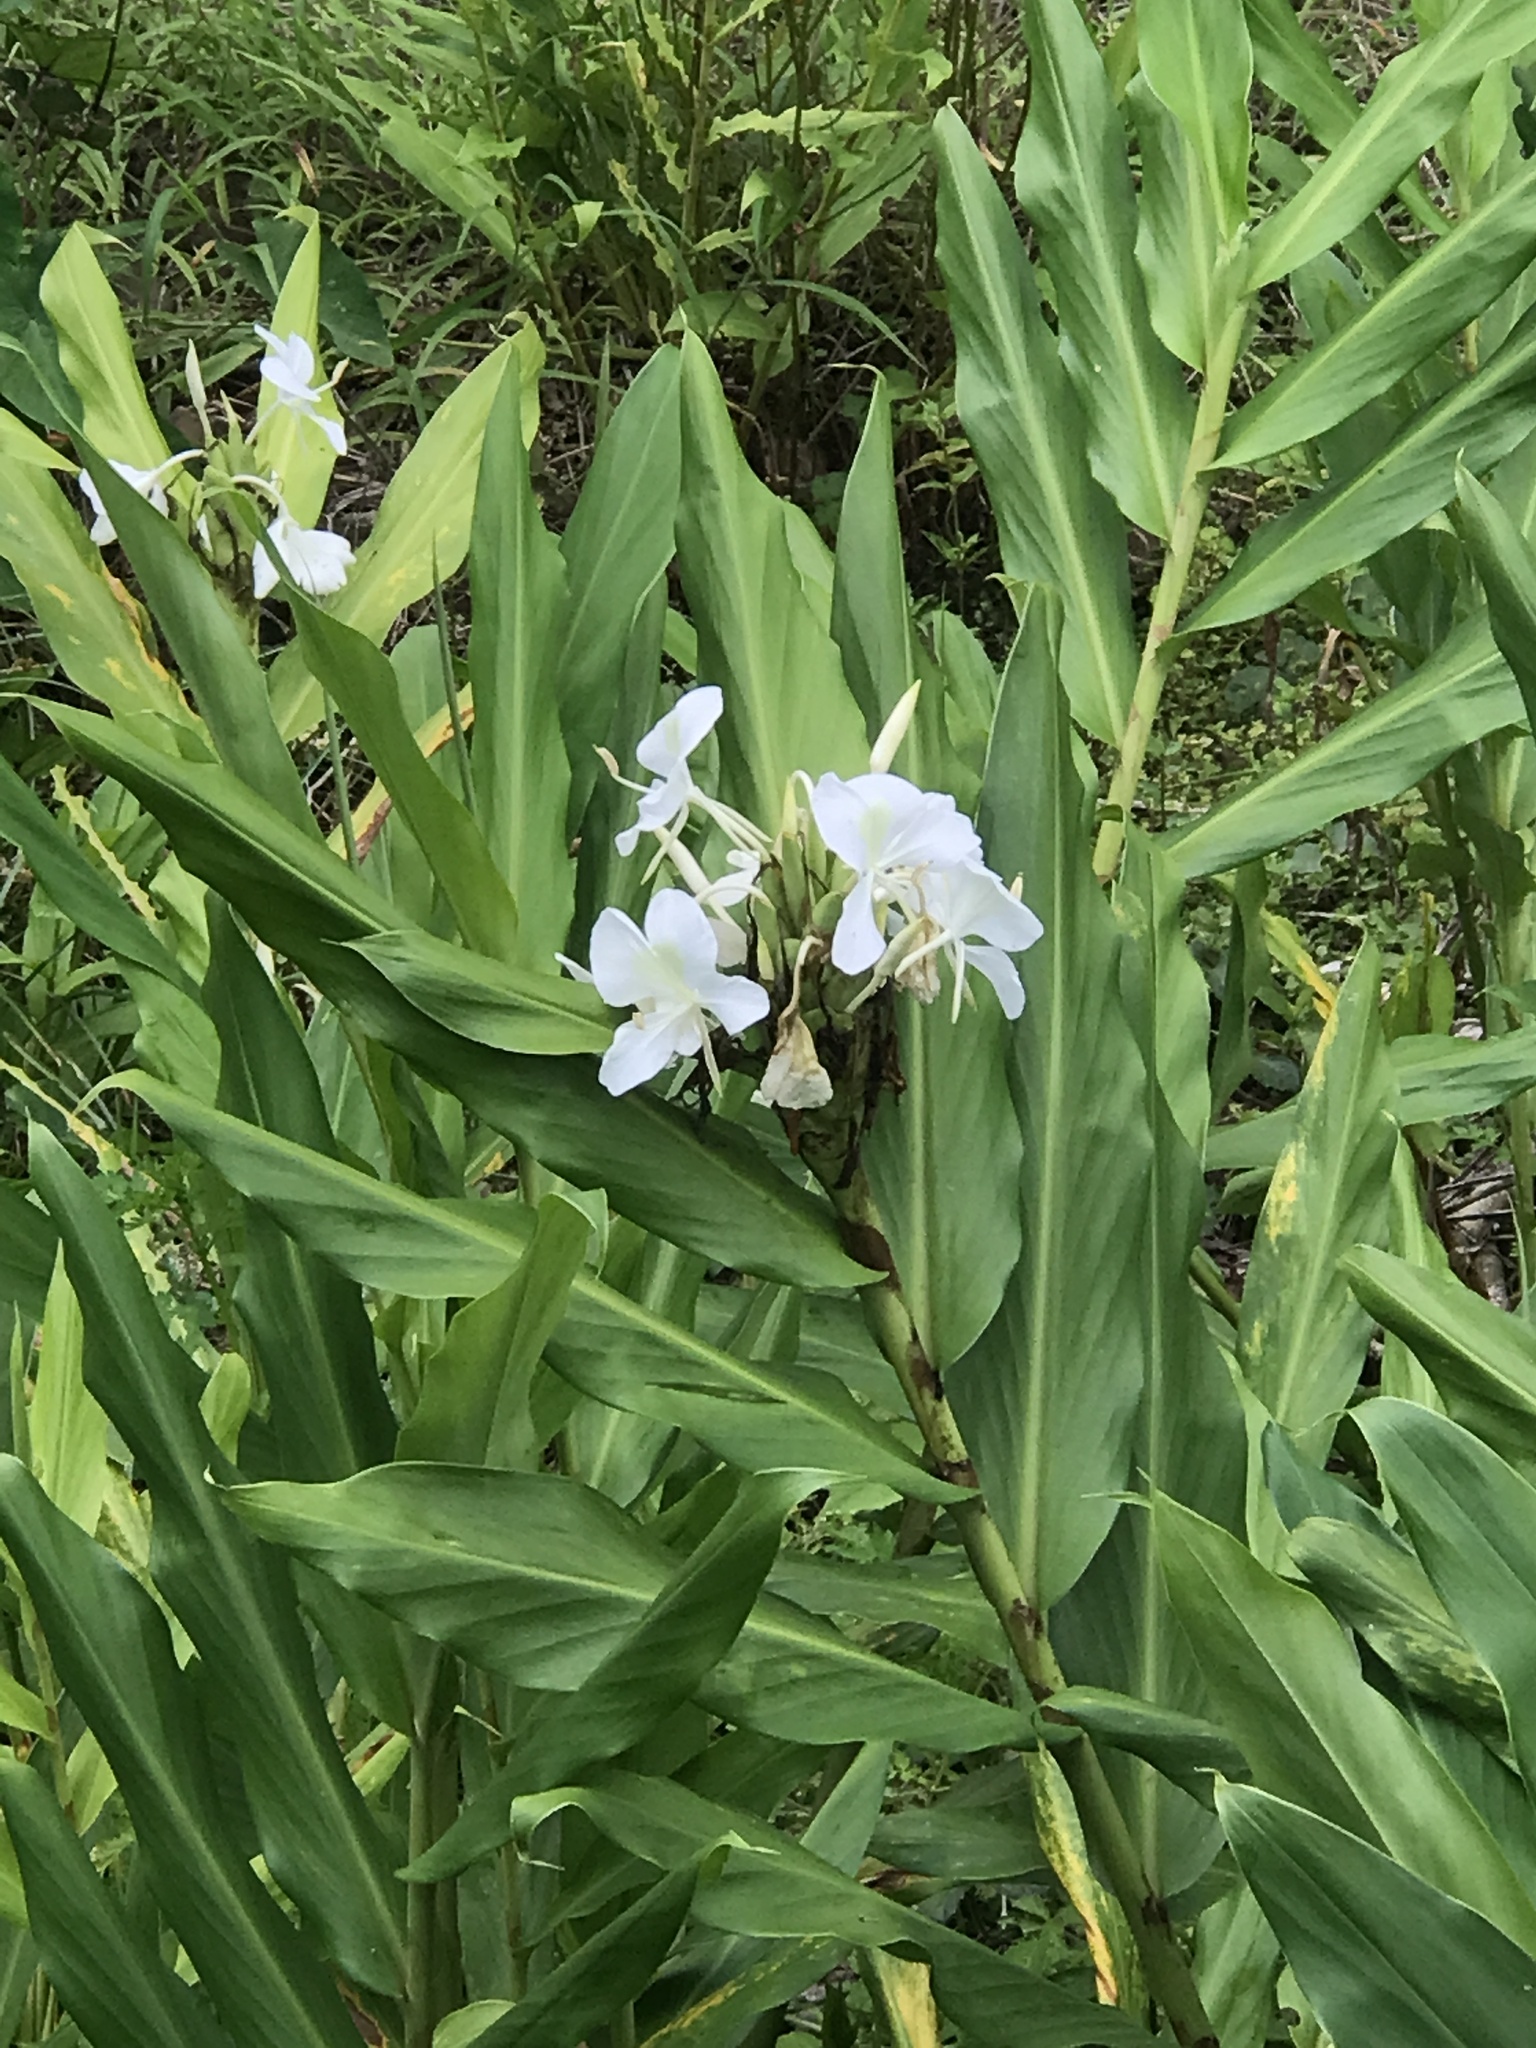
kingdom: Plantae
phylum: Tracheophyta
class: Liliopsida
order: Zingiberales
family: Zingiberaceae
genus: Hedychium
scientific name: Hedychium coronarium
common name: White garland-lily
